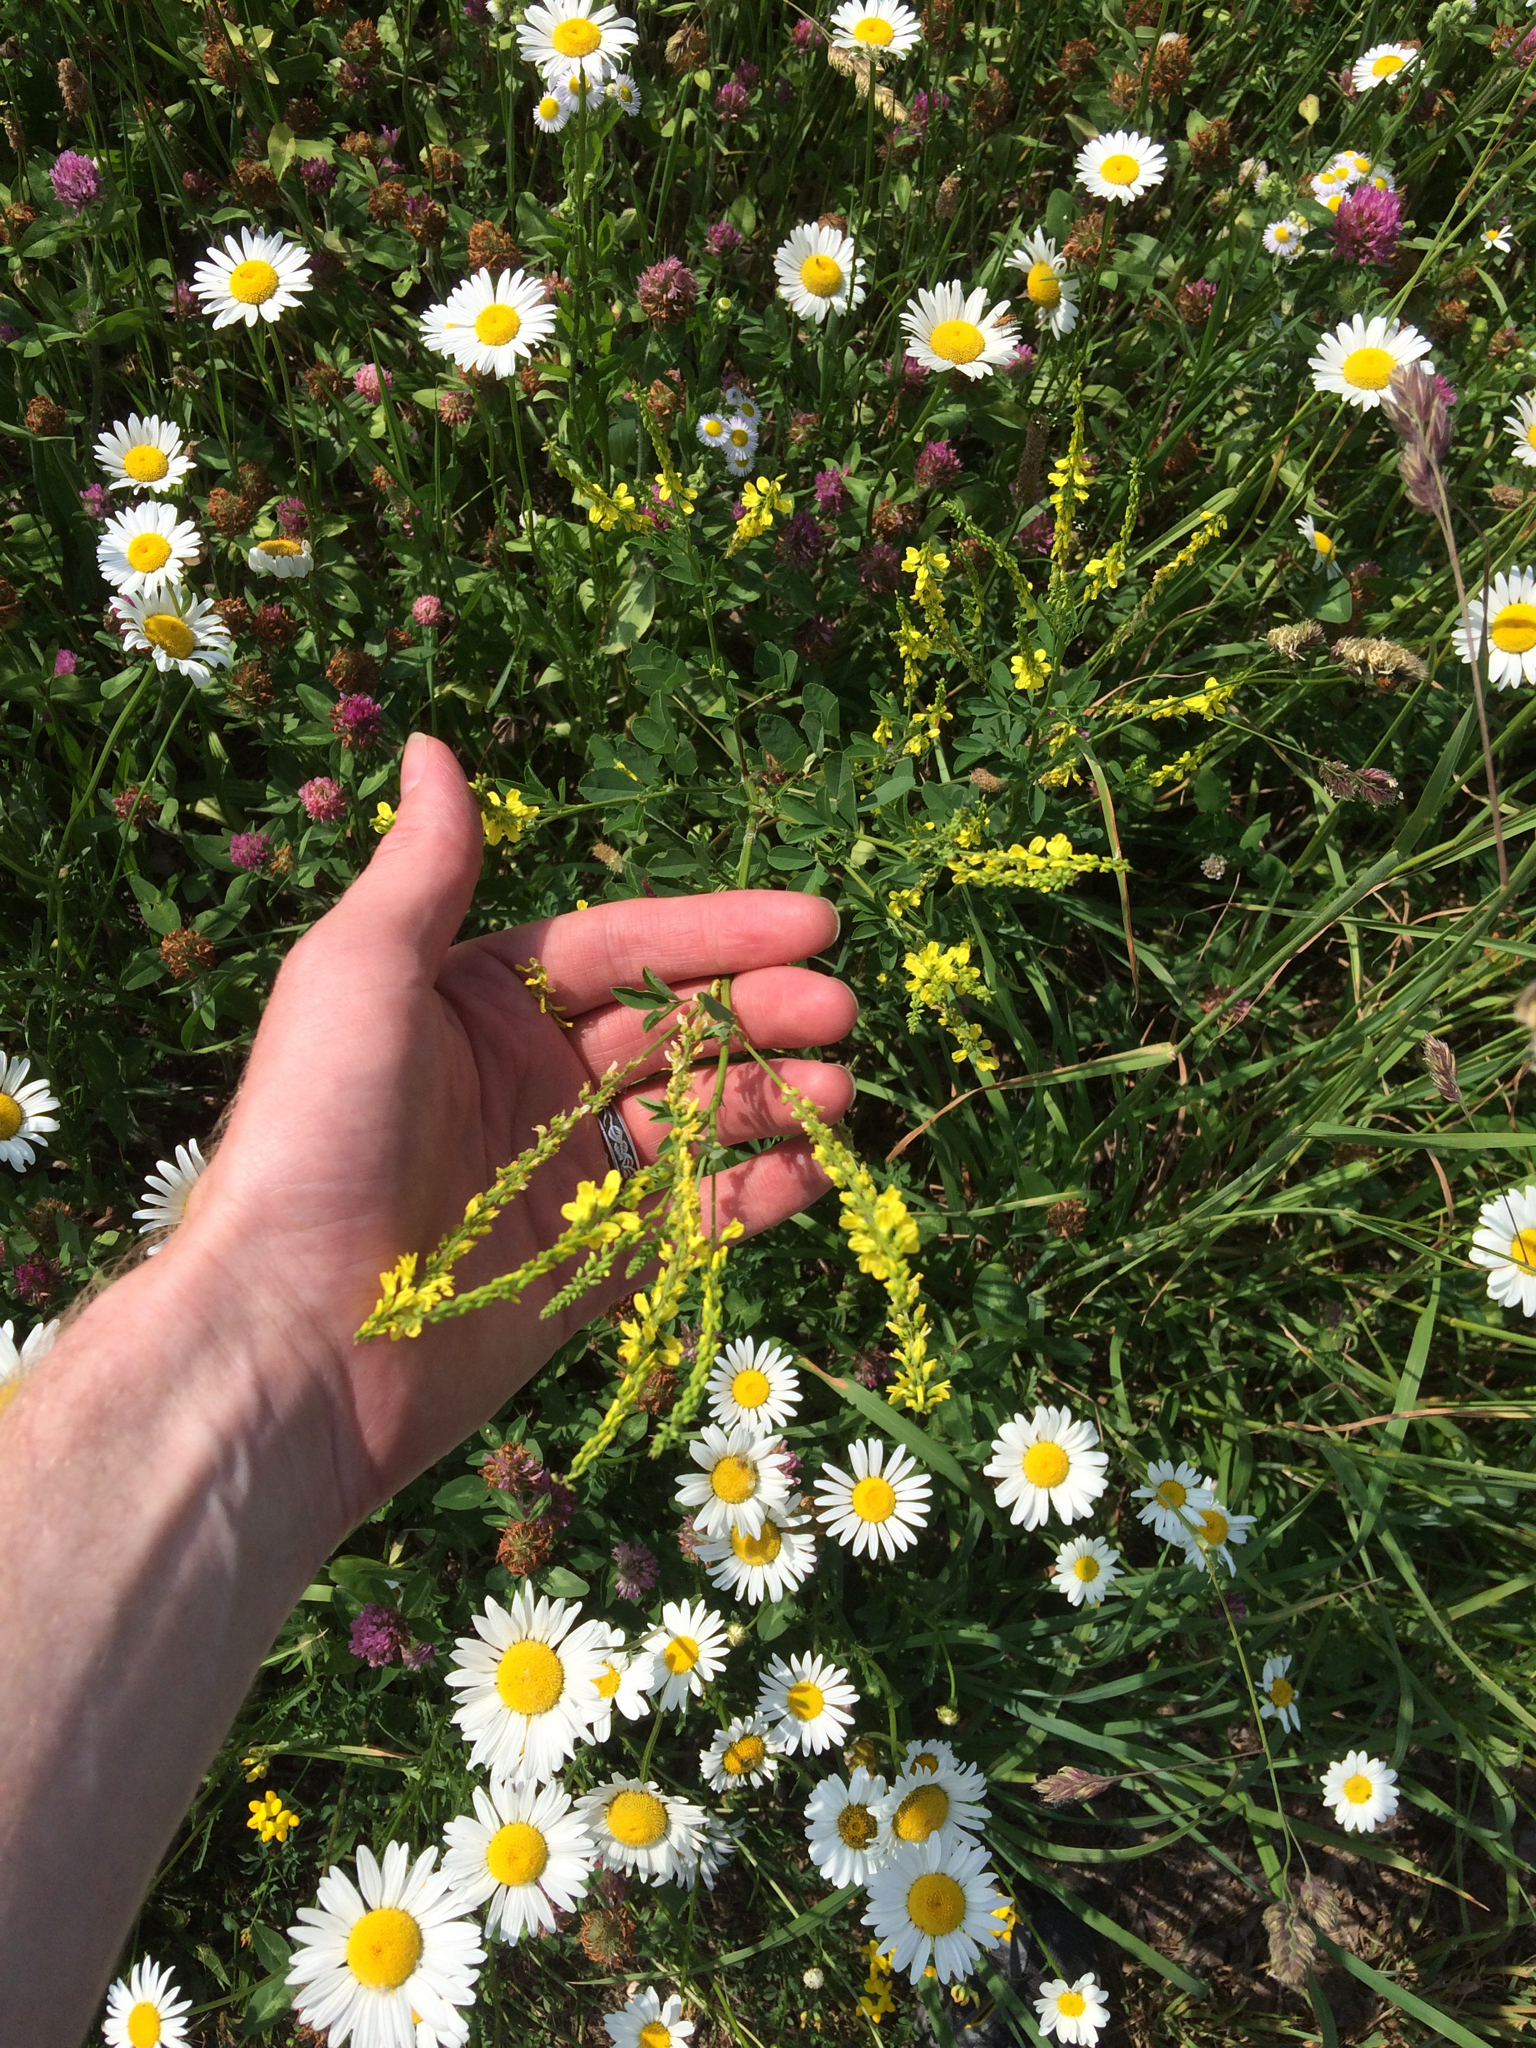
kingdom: Plantae
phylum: Tracheophyta
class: Magnoliopsida
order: Fabales
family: Fabaceae
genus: Melilotus
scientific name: Melilotus officinalis
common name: Sweetclover
